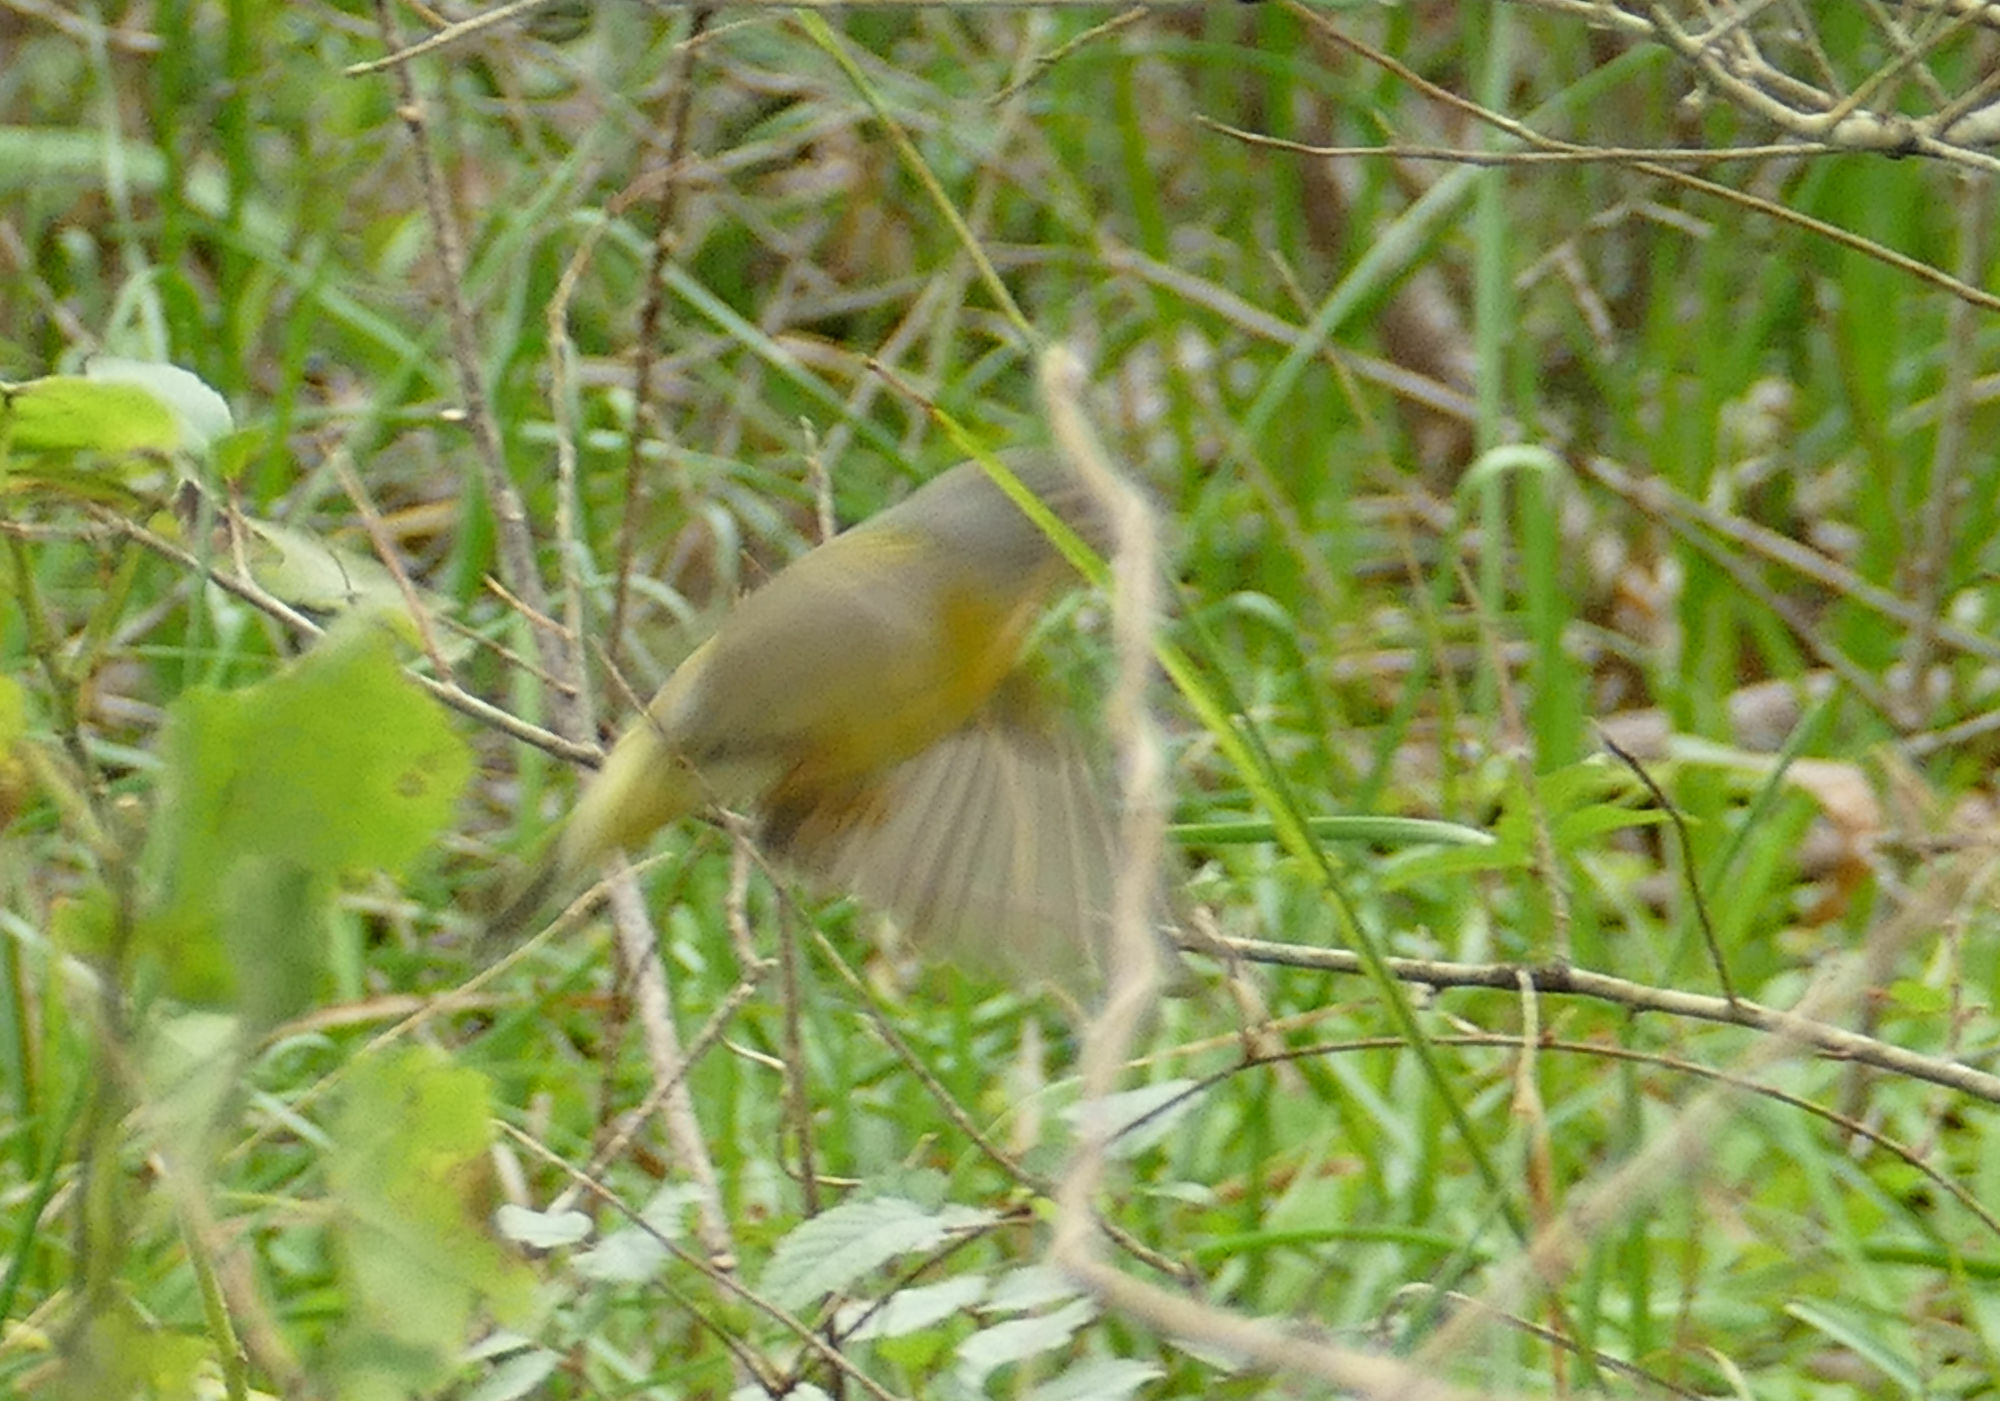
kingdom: Animalia
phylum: Chordata
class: Aves
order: Passeriformes
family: Parulidae
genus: Leiothlypis
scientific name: Leiothlypis ruficapilla
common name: Nashville warbler
